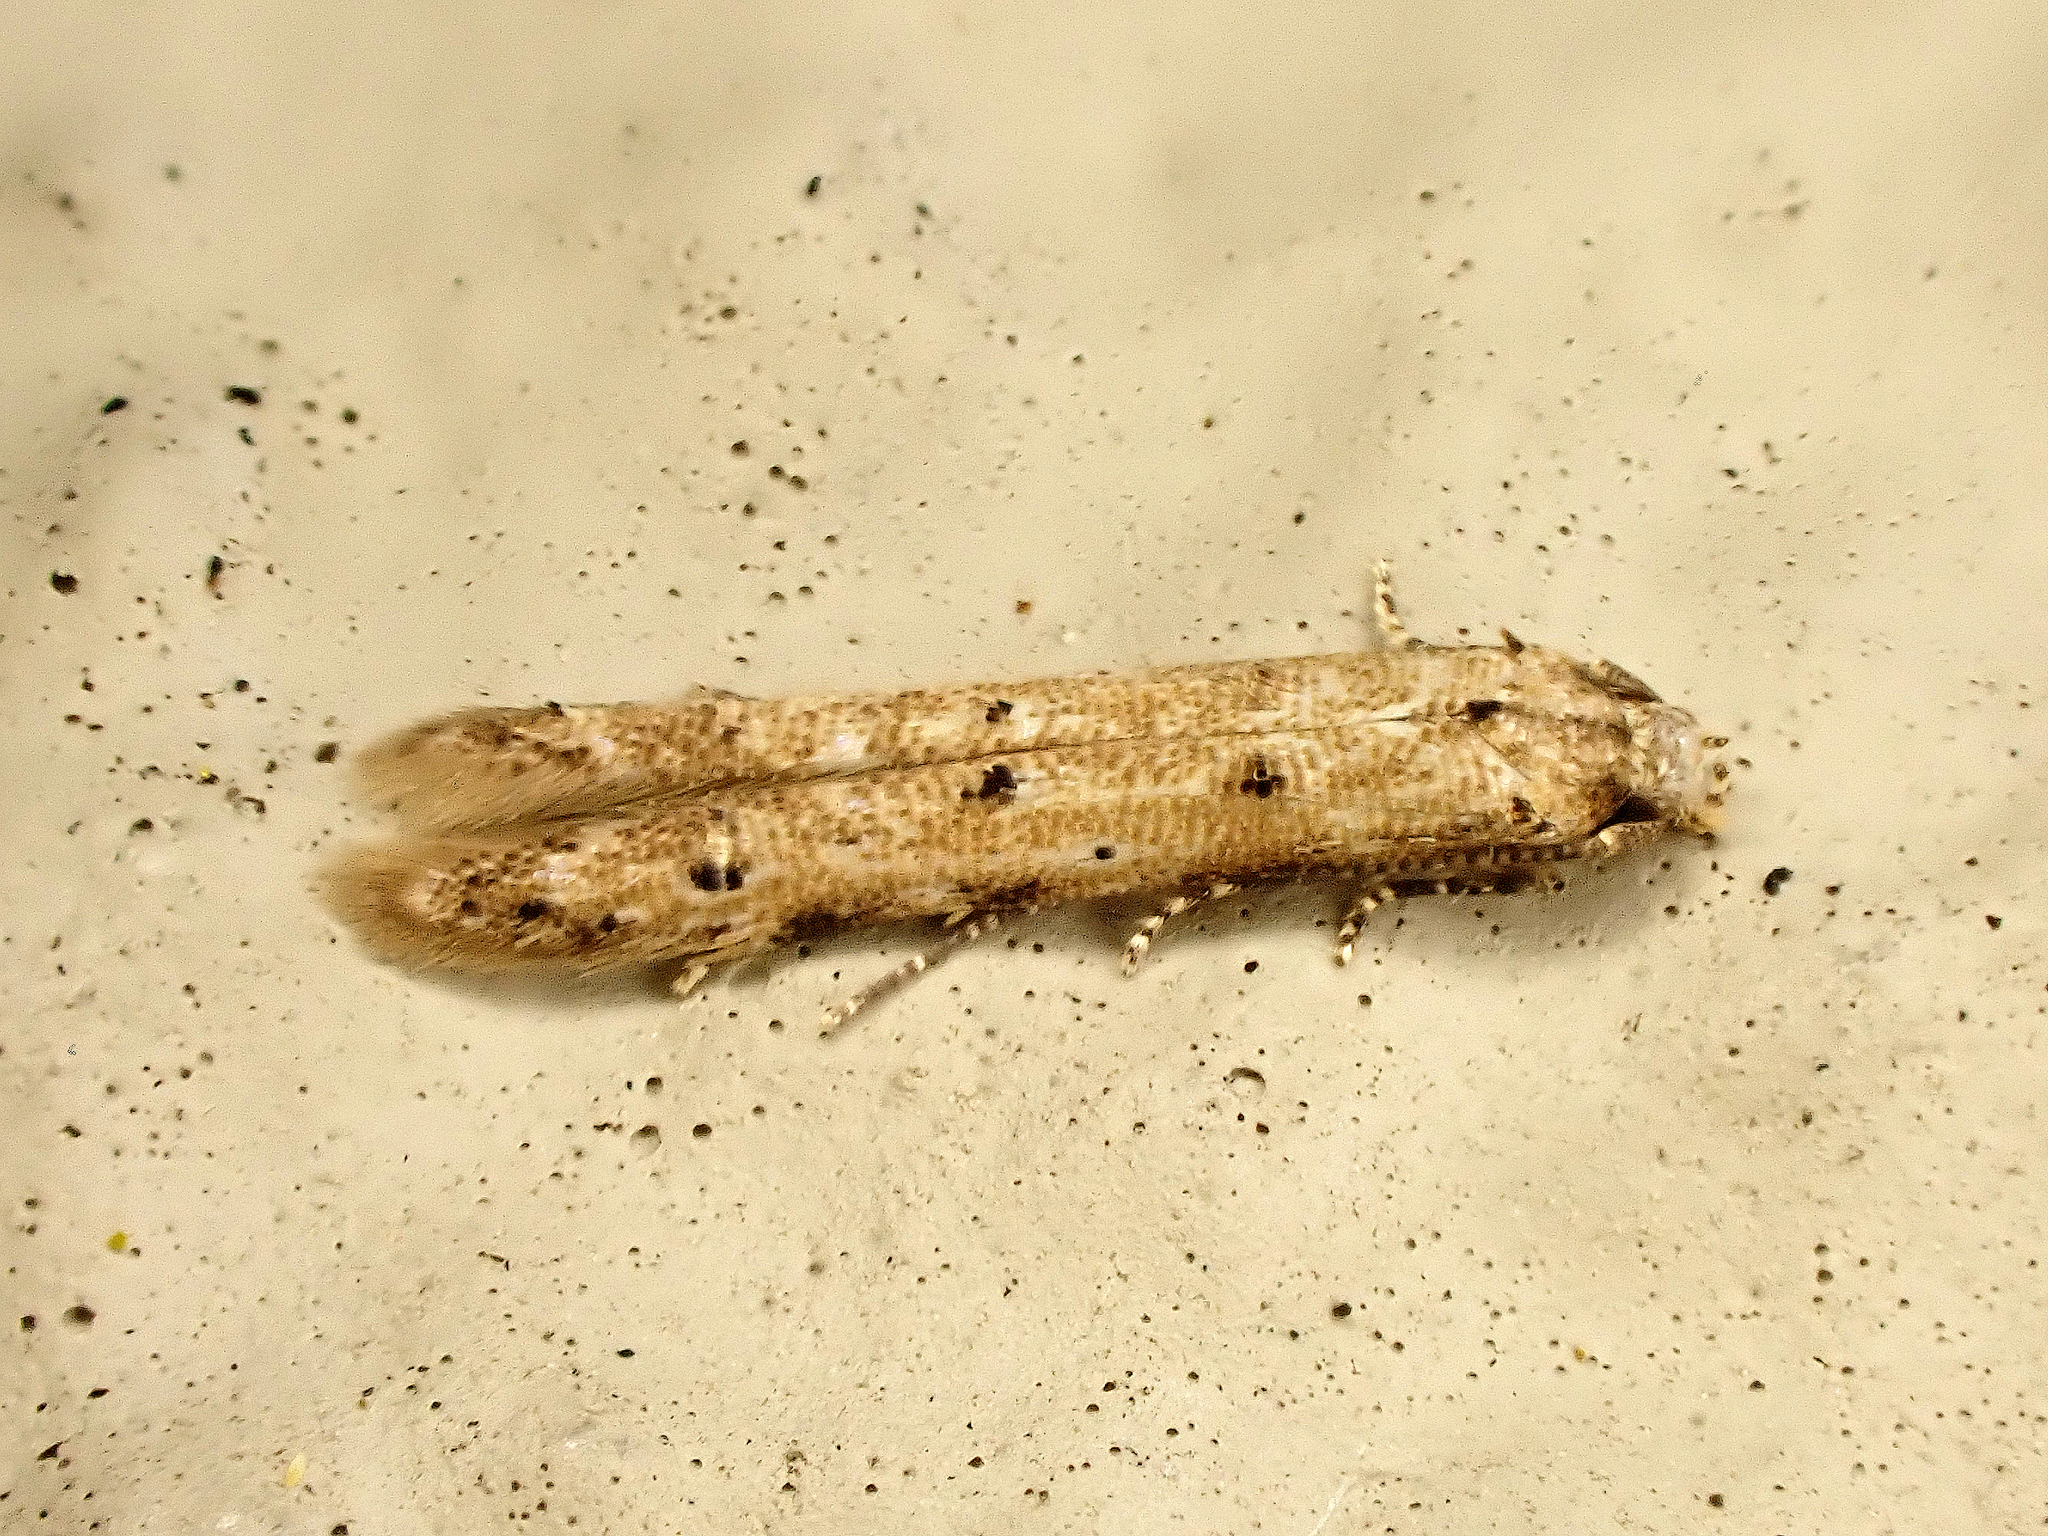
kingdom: Animalia
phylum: Arthropoda
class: Insecta
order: Lepidoptera
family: Elachistidae
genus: Microcolona
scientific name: Microcolona limodes
